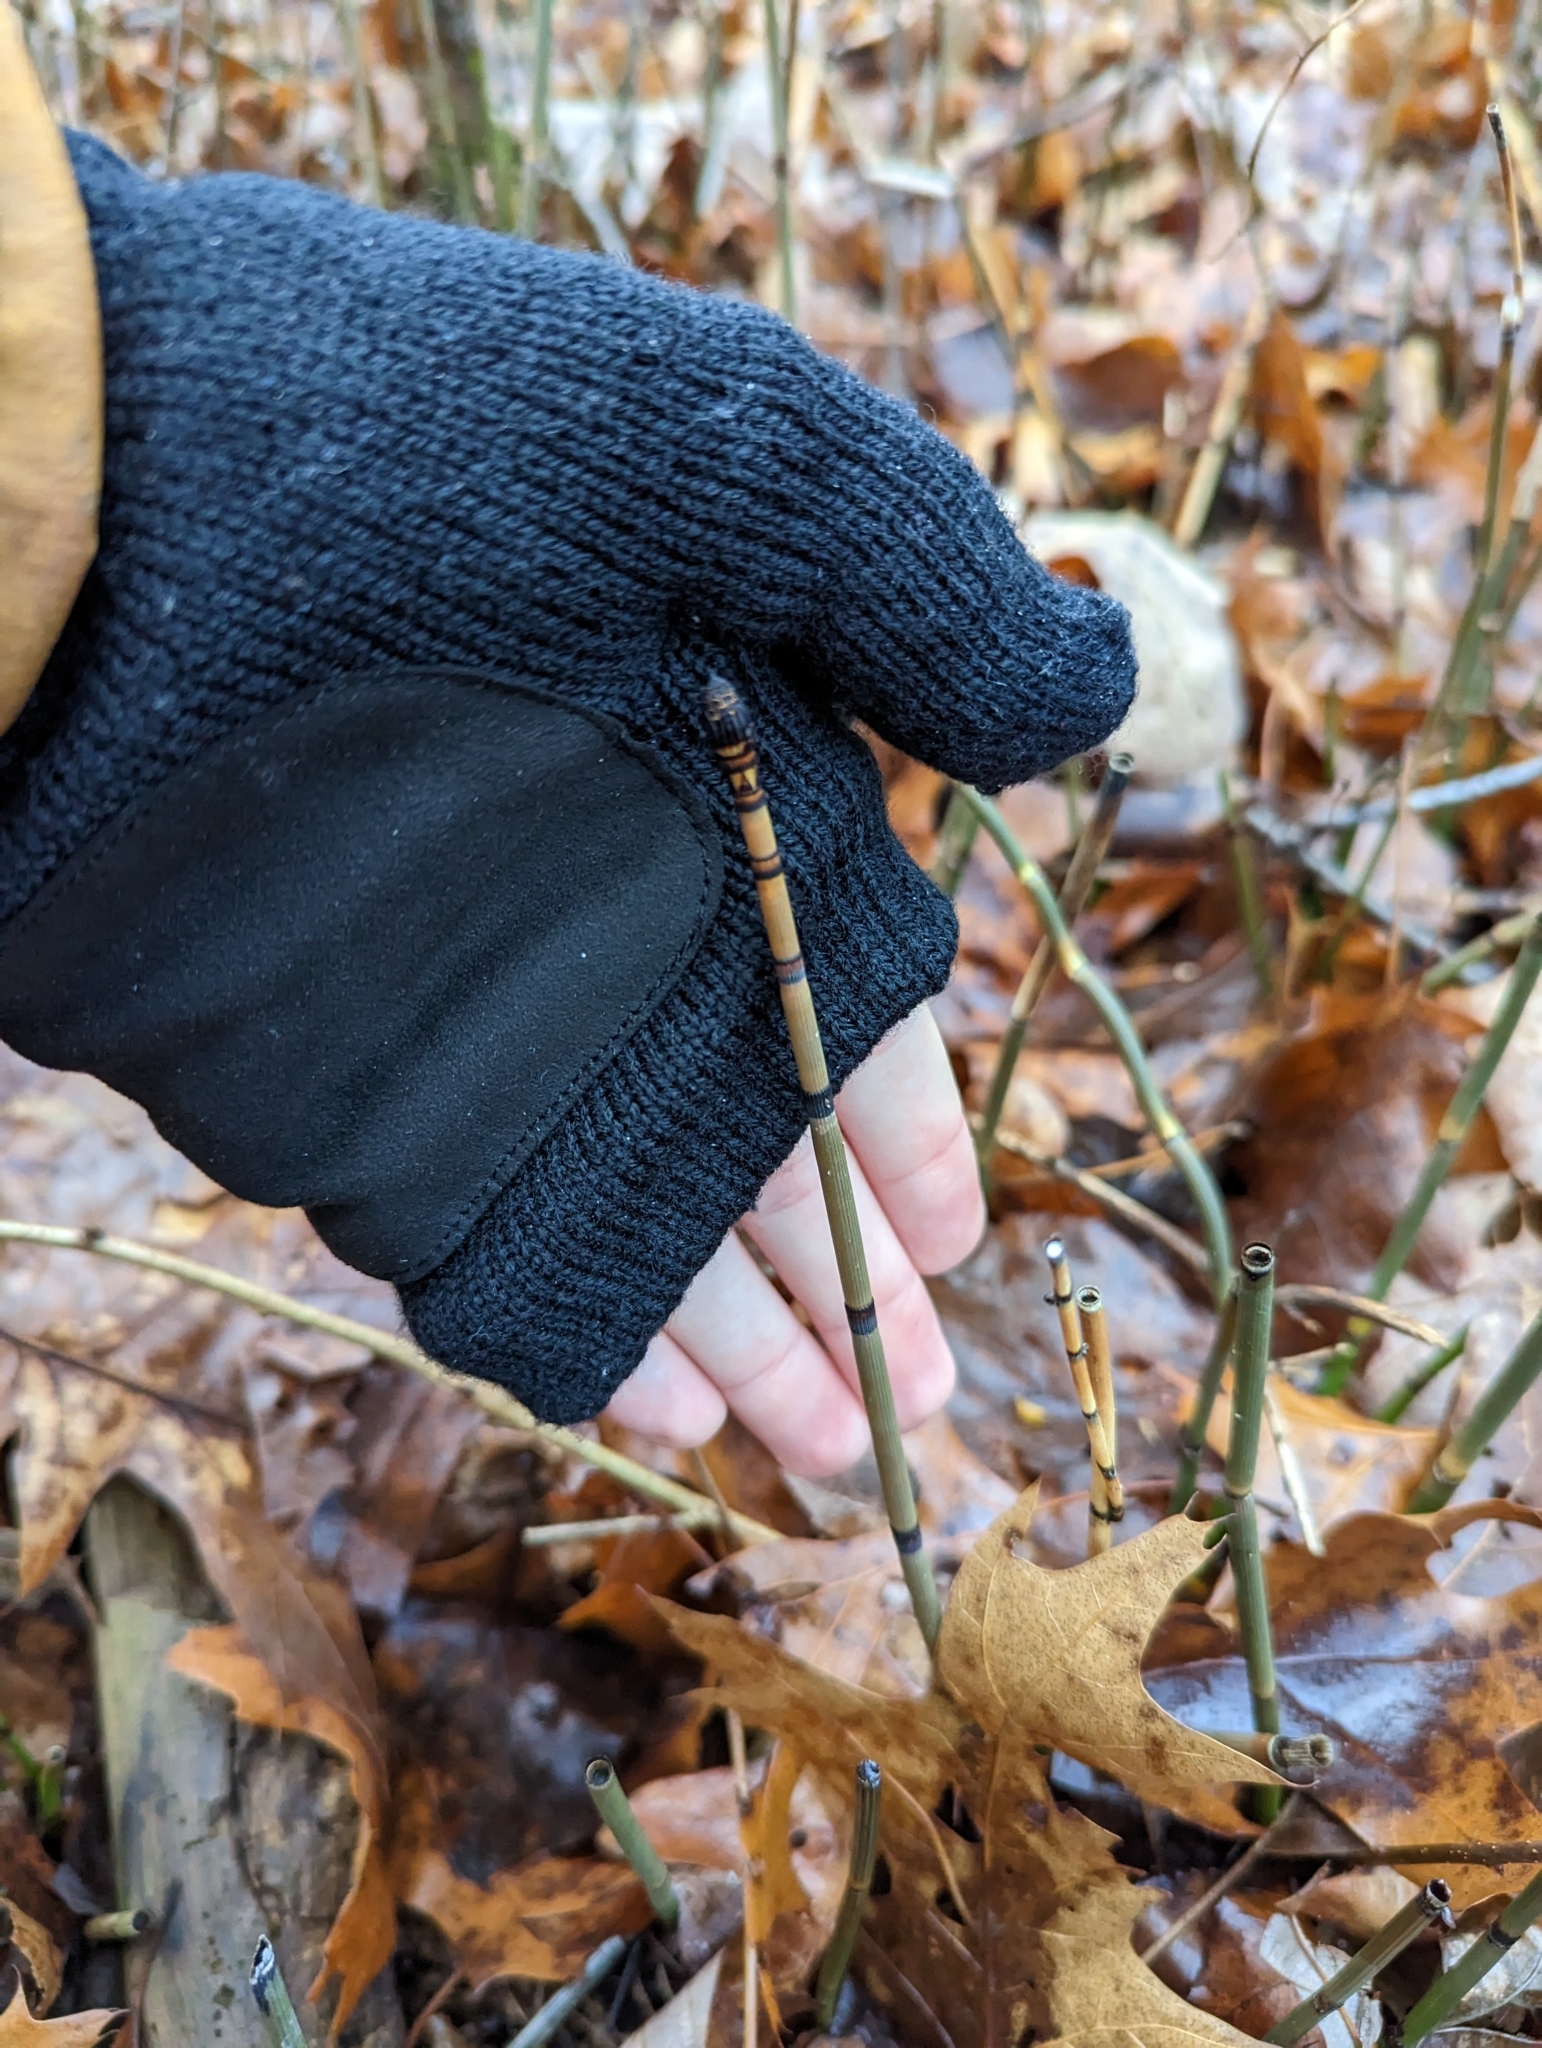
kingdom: Plantae
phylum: Tracheophyta
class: Polypodiopsida
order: Equisetales
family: Equisetaceae
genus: Equisetum
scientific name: Equisetum praealtum
